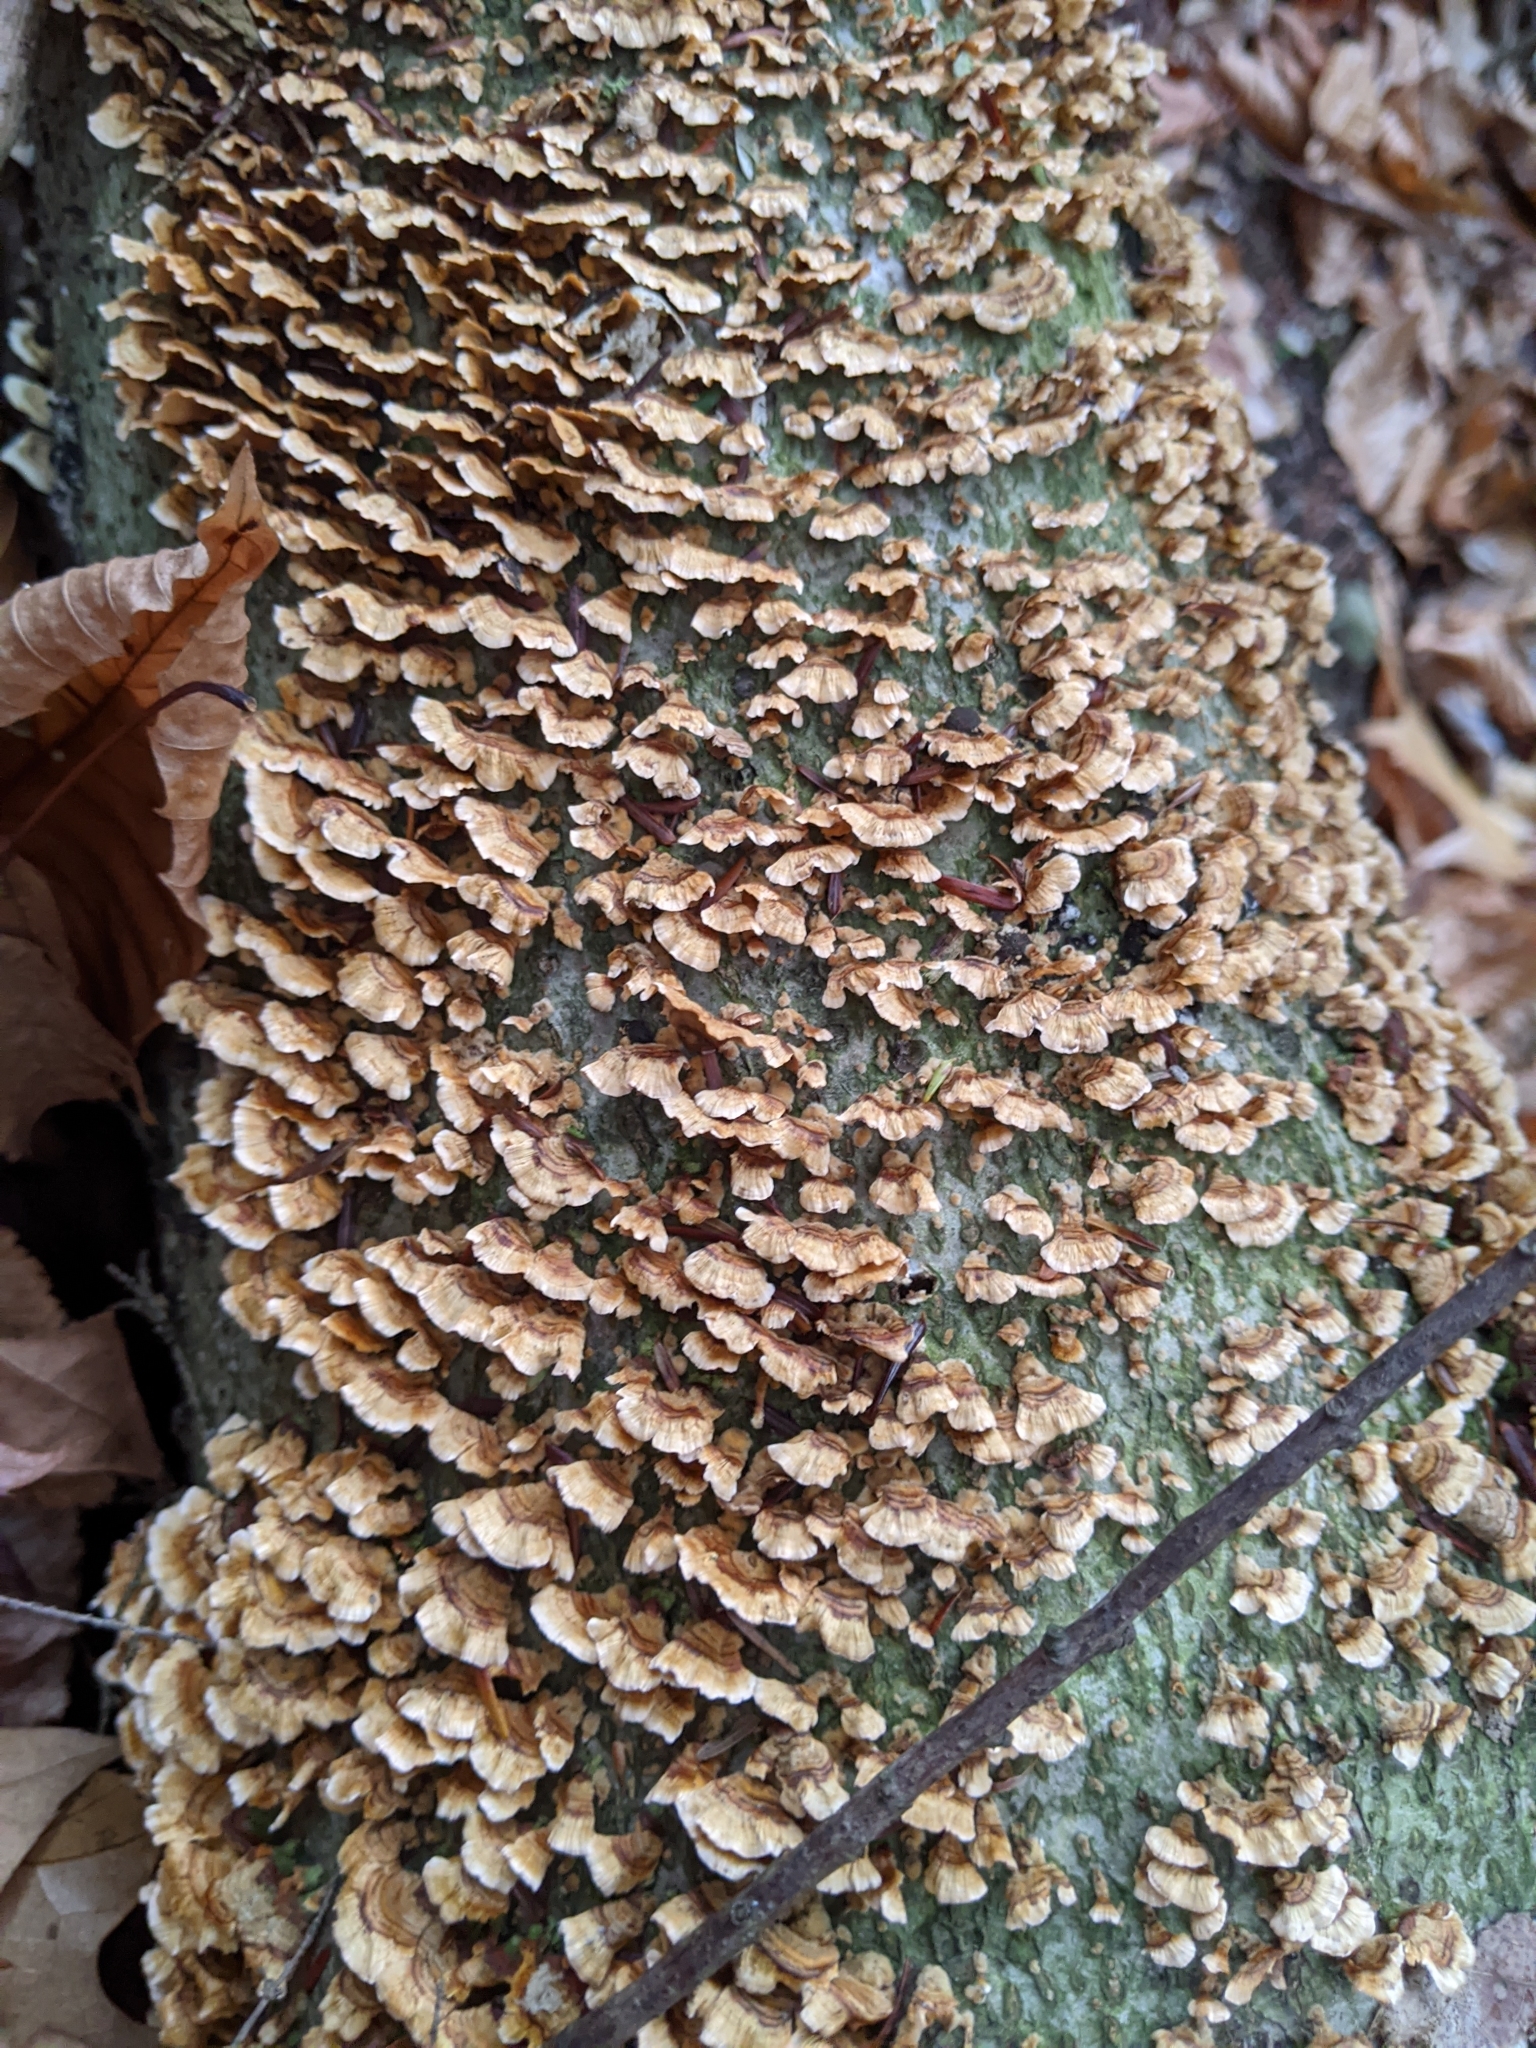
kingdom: Fungi
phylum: Basidiomycota
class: Agaricomycetes
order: Russulales
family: Stereaceae
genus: Stereum
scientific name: Stereum complicatum
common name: Crowded parchment
